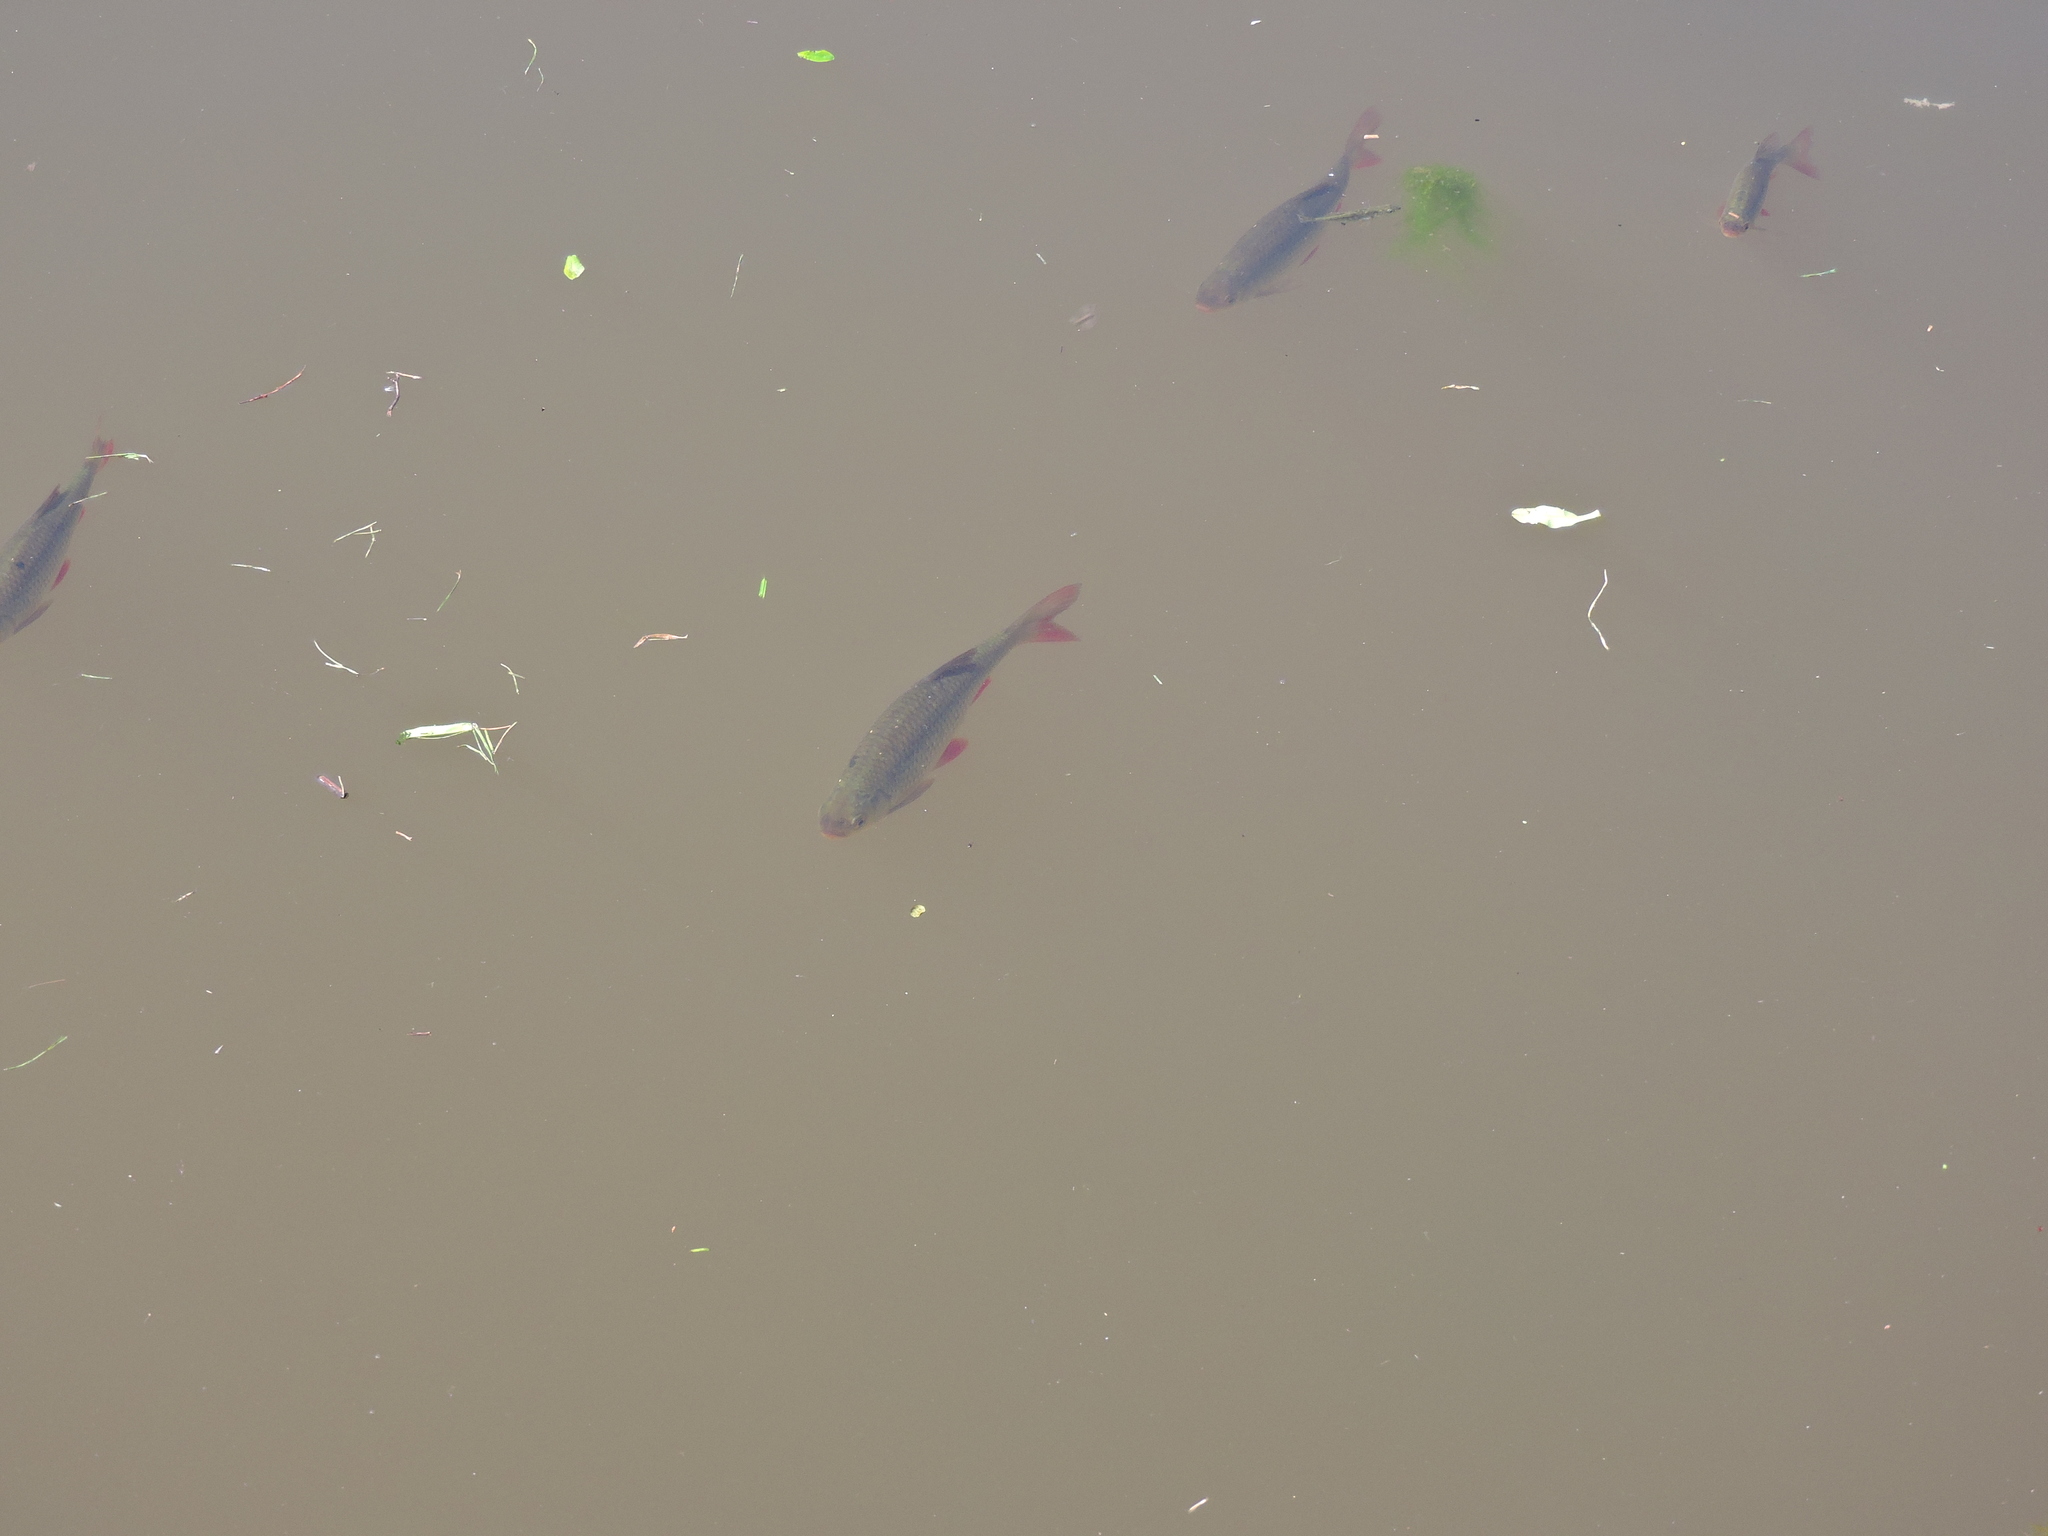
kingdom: Animalia
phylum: Chordata
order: Cypriniformes
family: Cyprinidae
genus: Scardinius
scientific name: Scardinius erythrophthalmus
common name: Rudd
